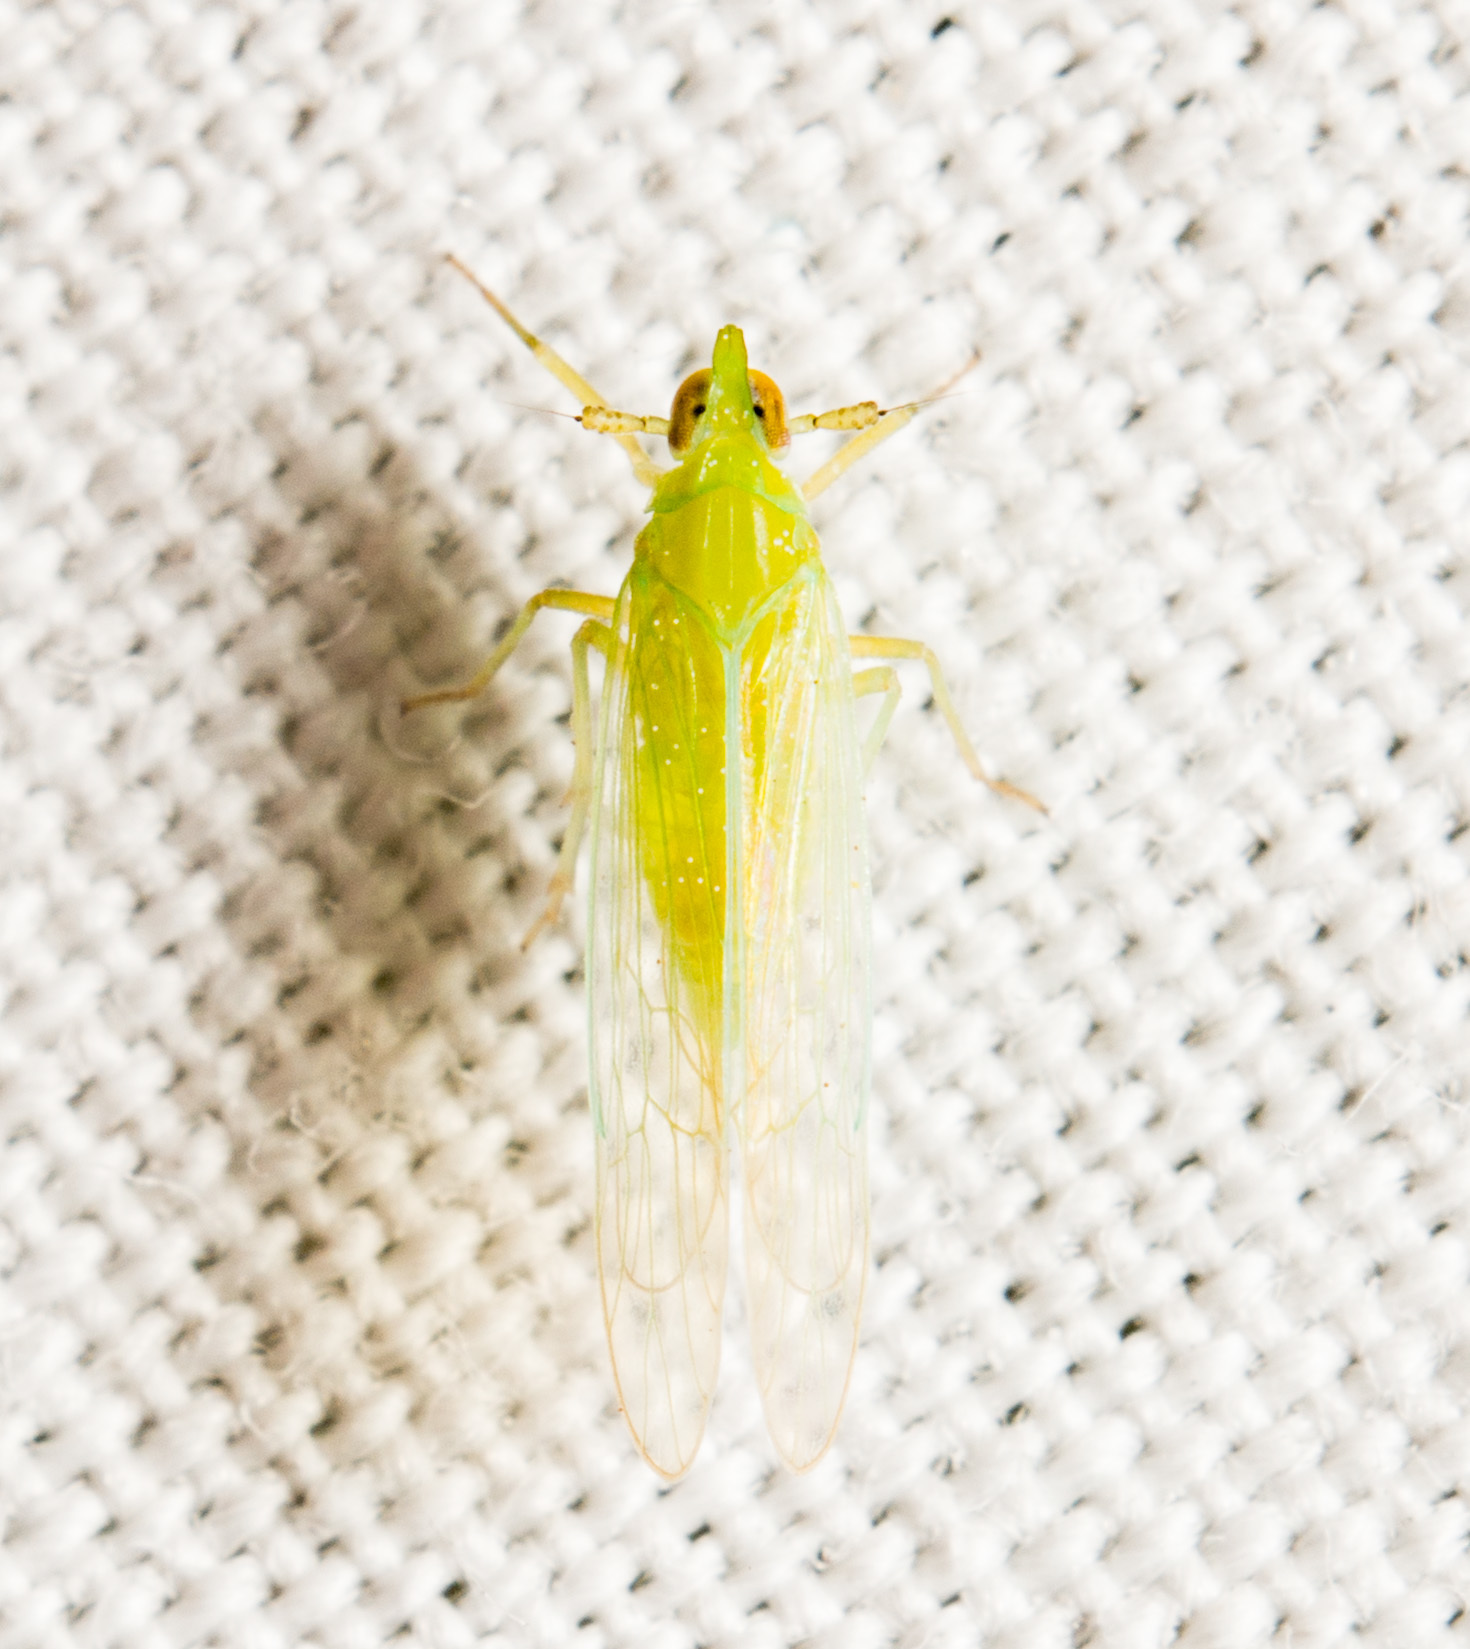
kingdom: Animalia
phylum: Arthropoda
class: Insecta
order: Hemiptera
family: Delphacidae
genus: Saccharosydne
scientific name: Saccharosydne saccharivora
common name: Delphacid planthopper
